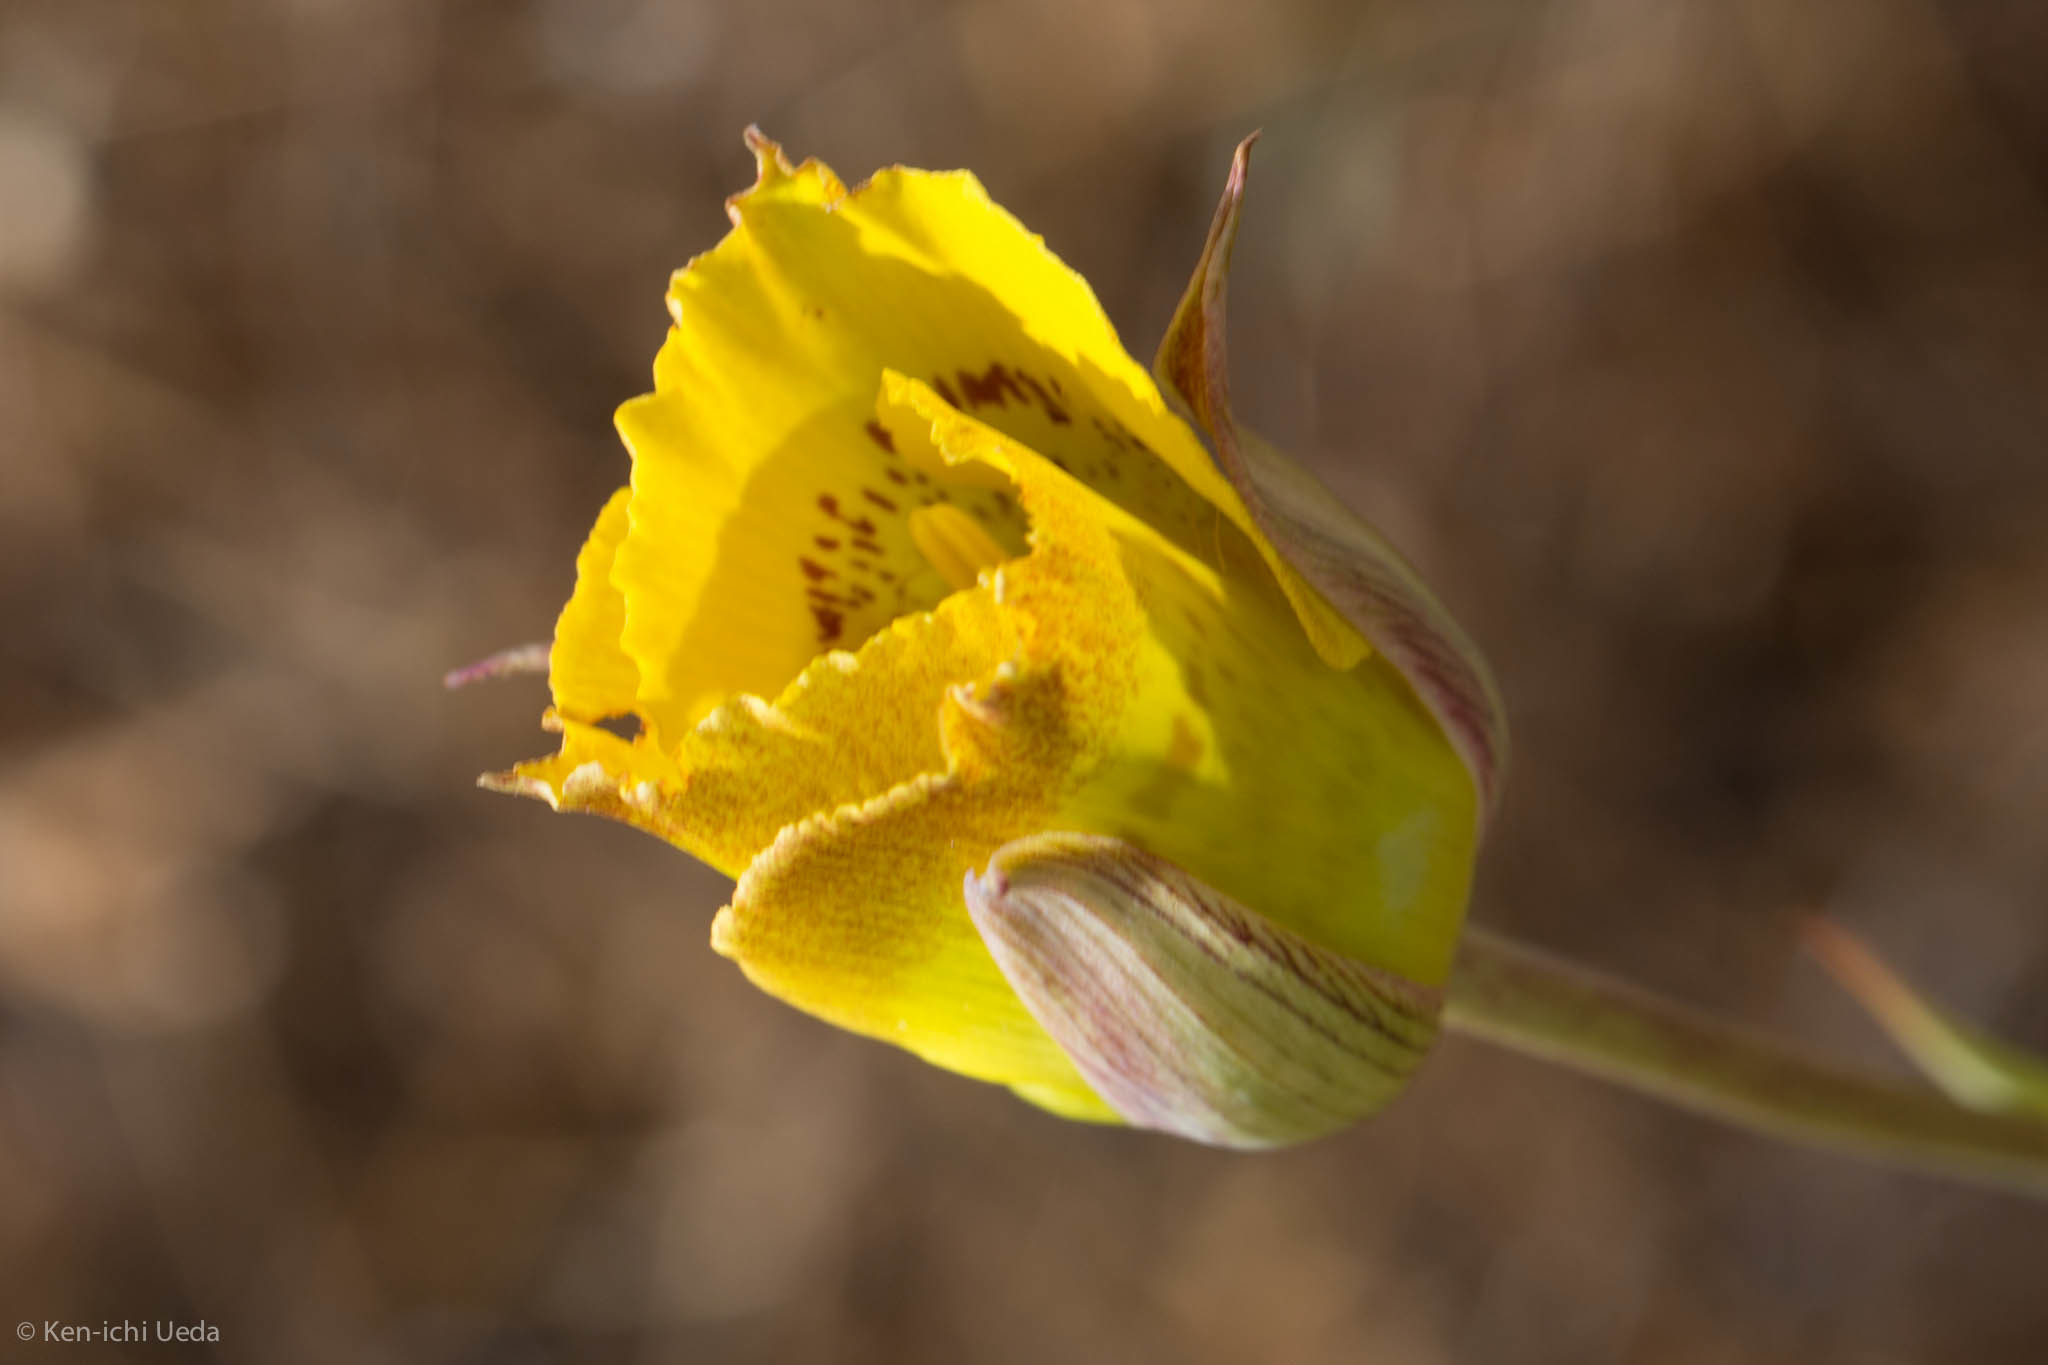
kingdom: Plantae
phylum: Tracheophyta
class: Liliopsida
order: Liliales
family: Liliaceae
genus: Calochortus
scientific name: Calochortus luteus
